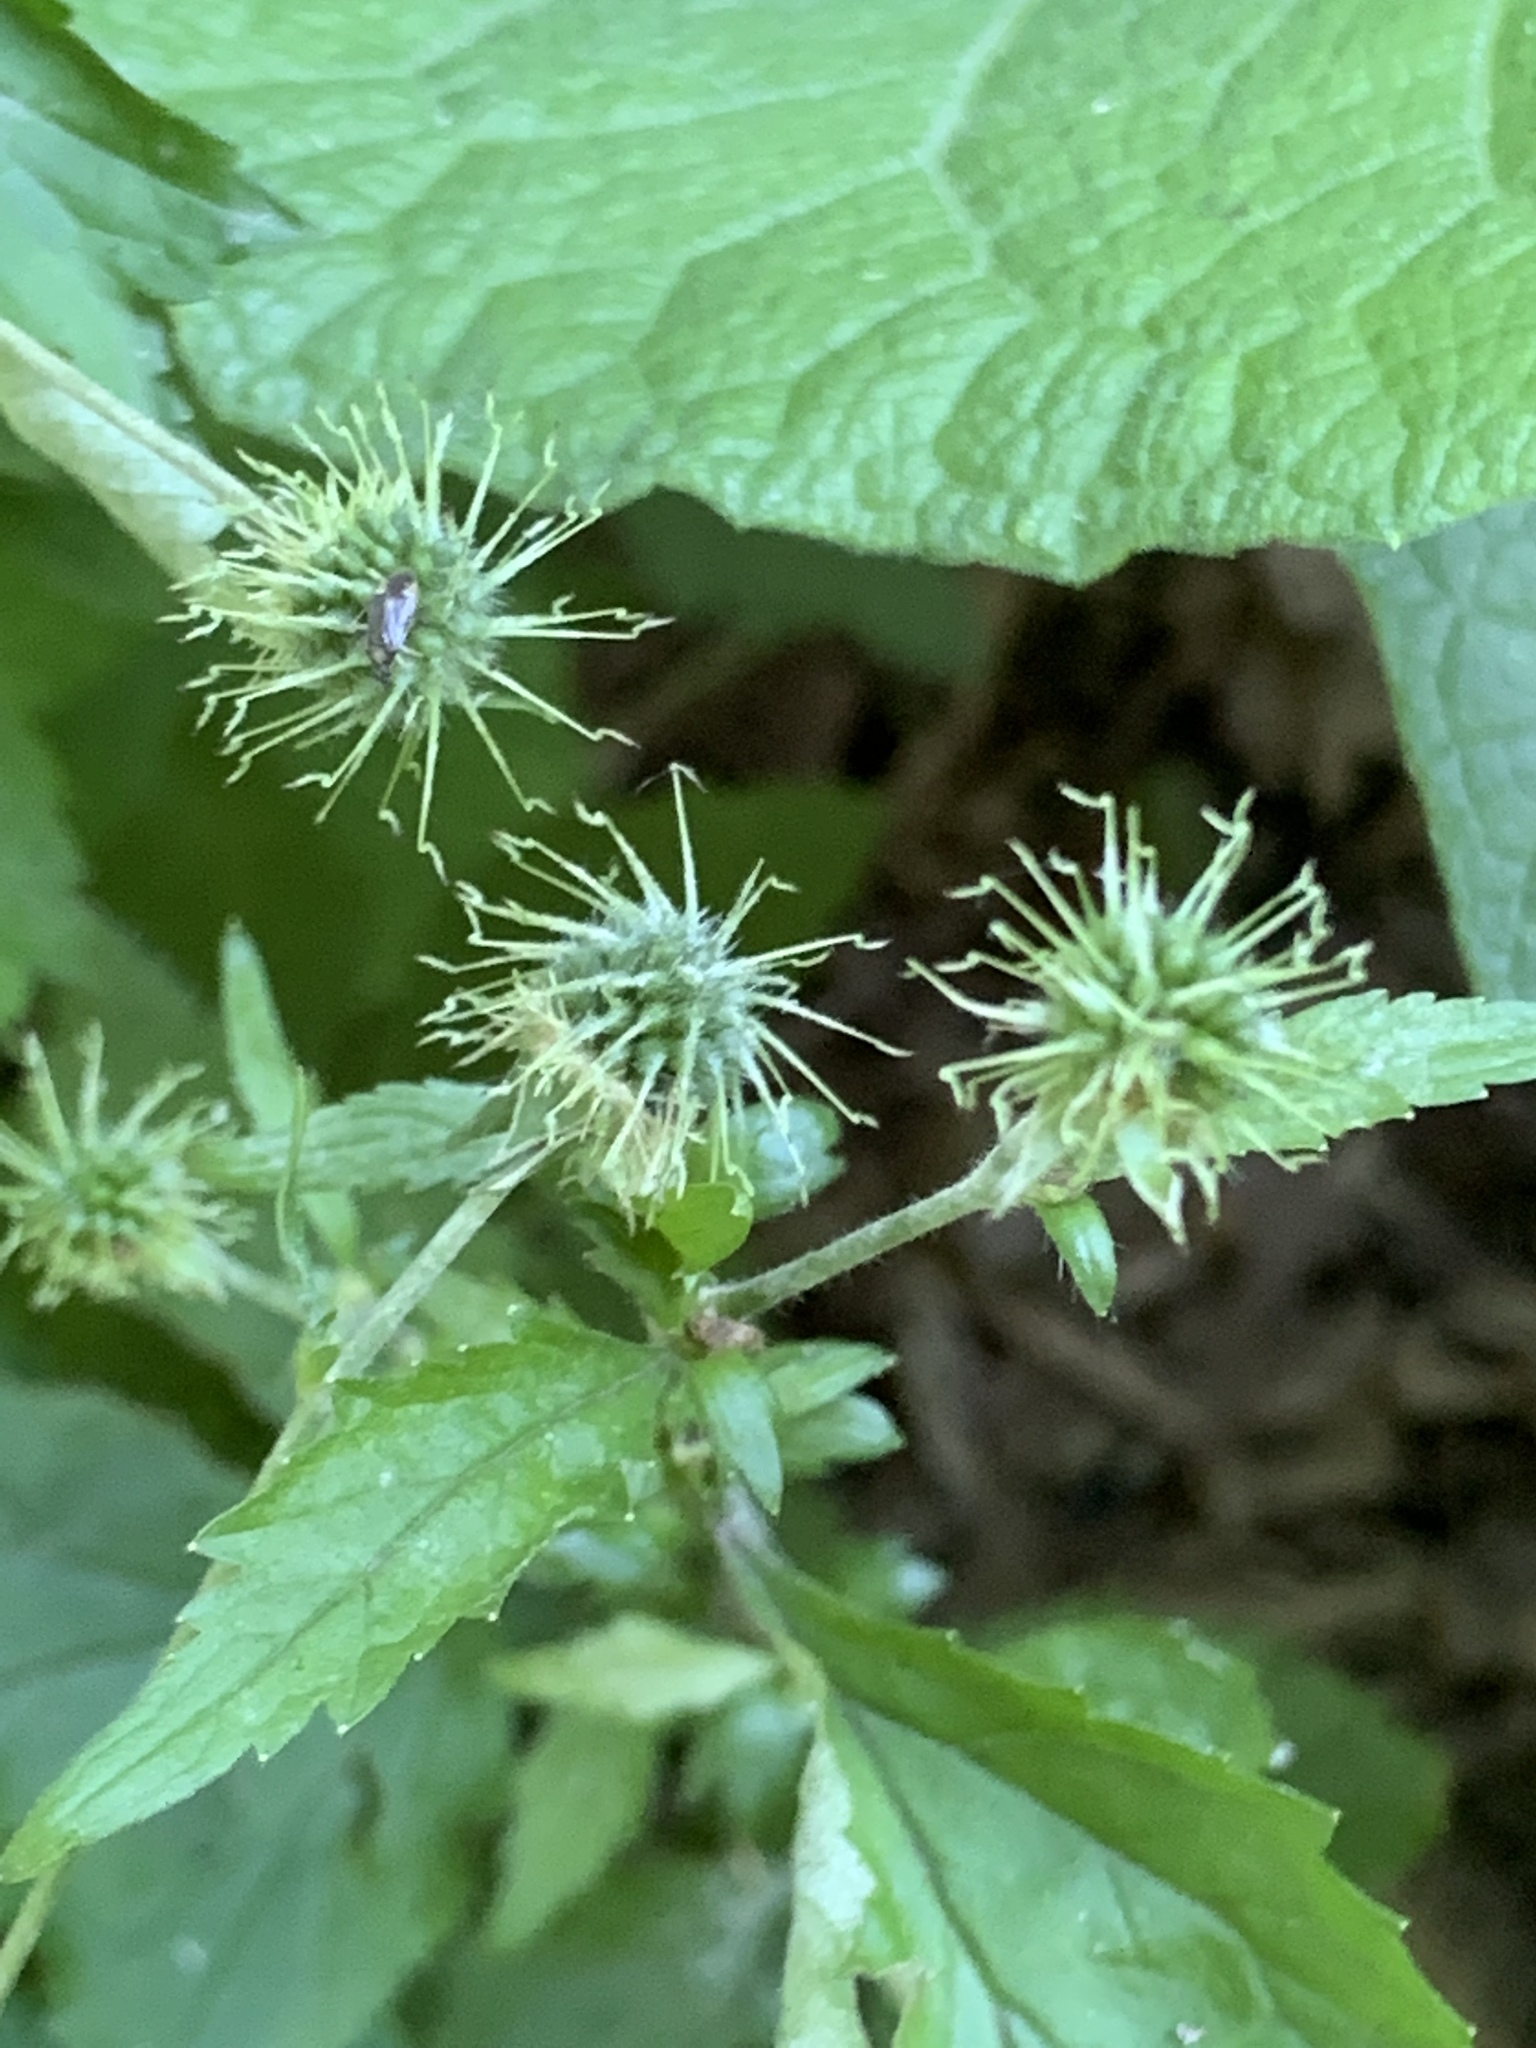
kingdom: Plantae
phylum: Tracheophyta
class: Magnoliopsida
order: Rosales
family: Rosaceae
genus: Geum
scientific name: Geum canadense
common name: White avens
